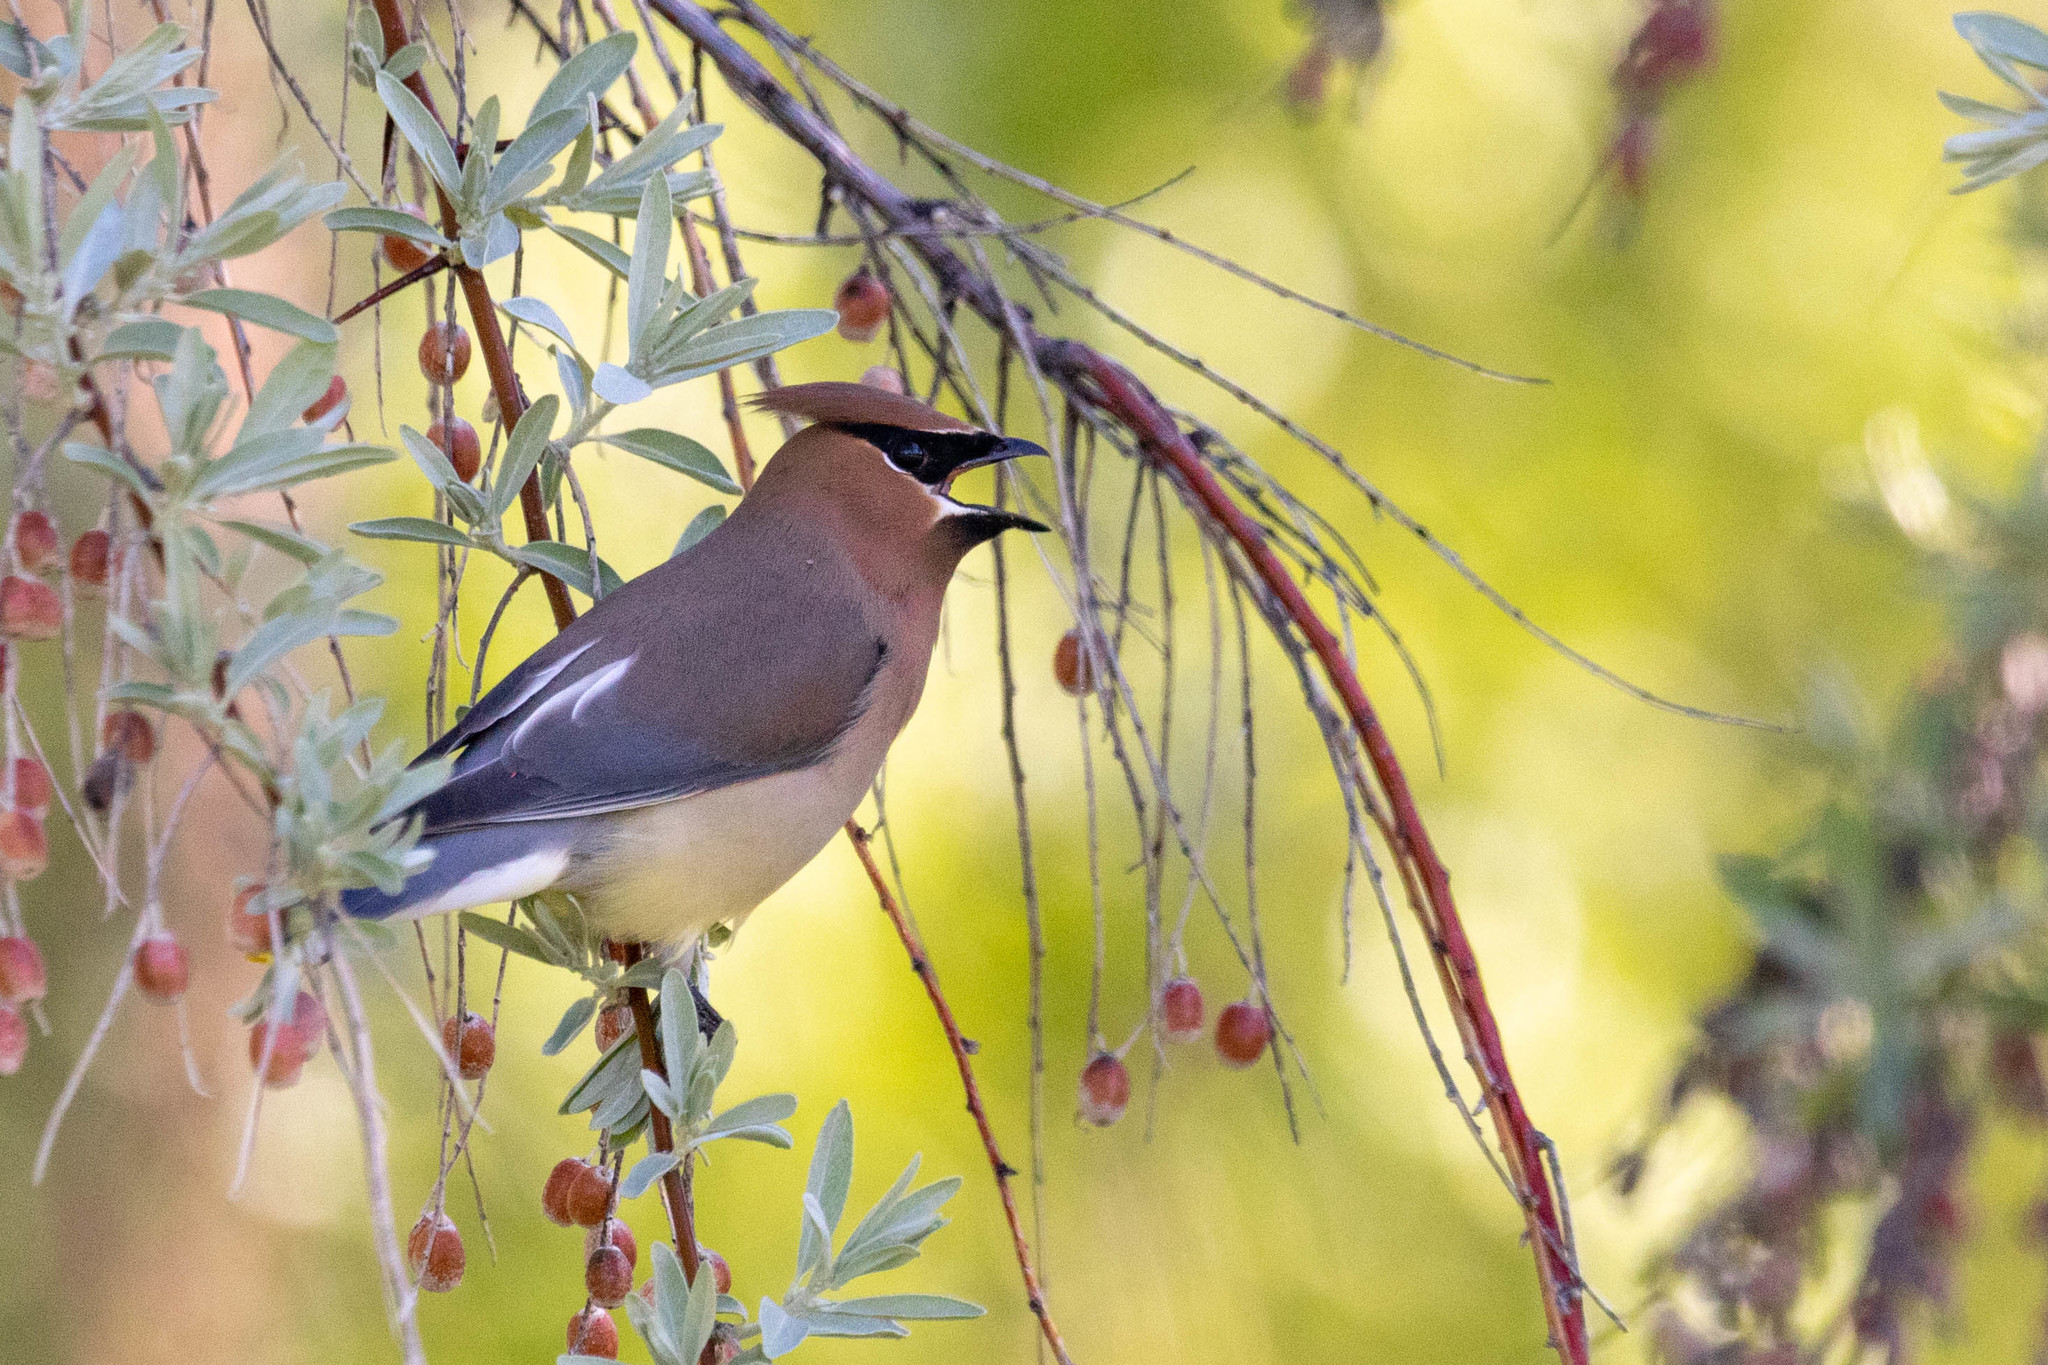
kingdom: Animalia
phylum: Chordata
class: Aves
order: Passeriformes
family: Bombycillidae
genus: Bombycilla
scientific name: Bombycilla cedrorum
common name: Cedar waxwing
